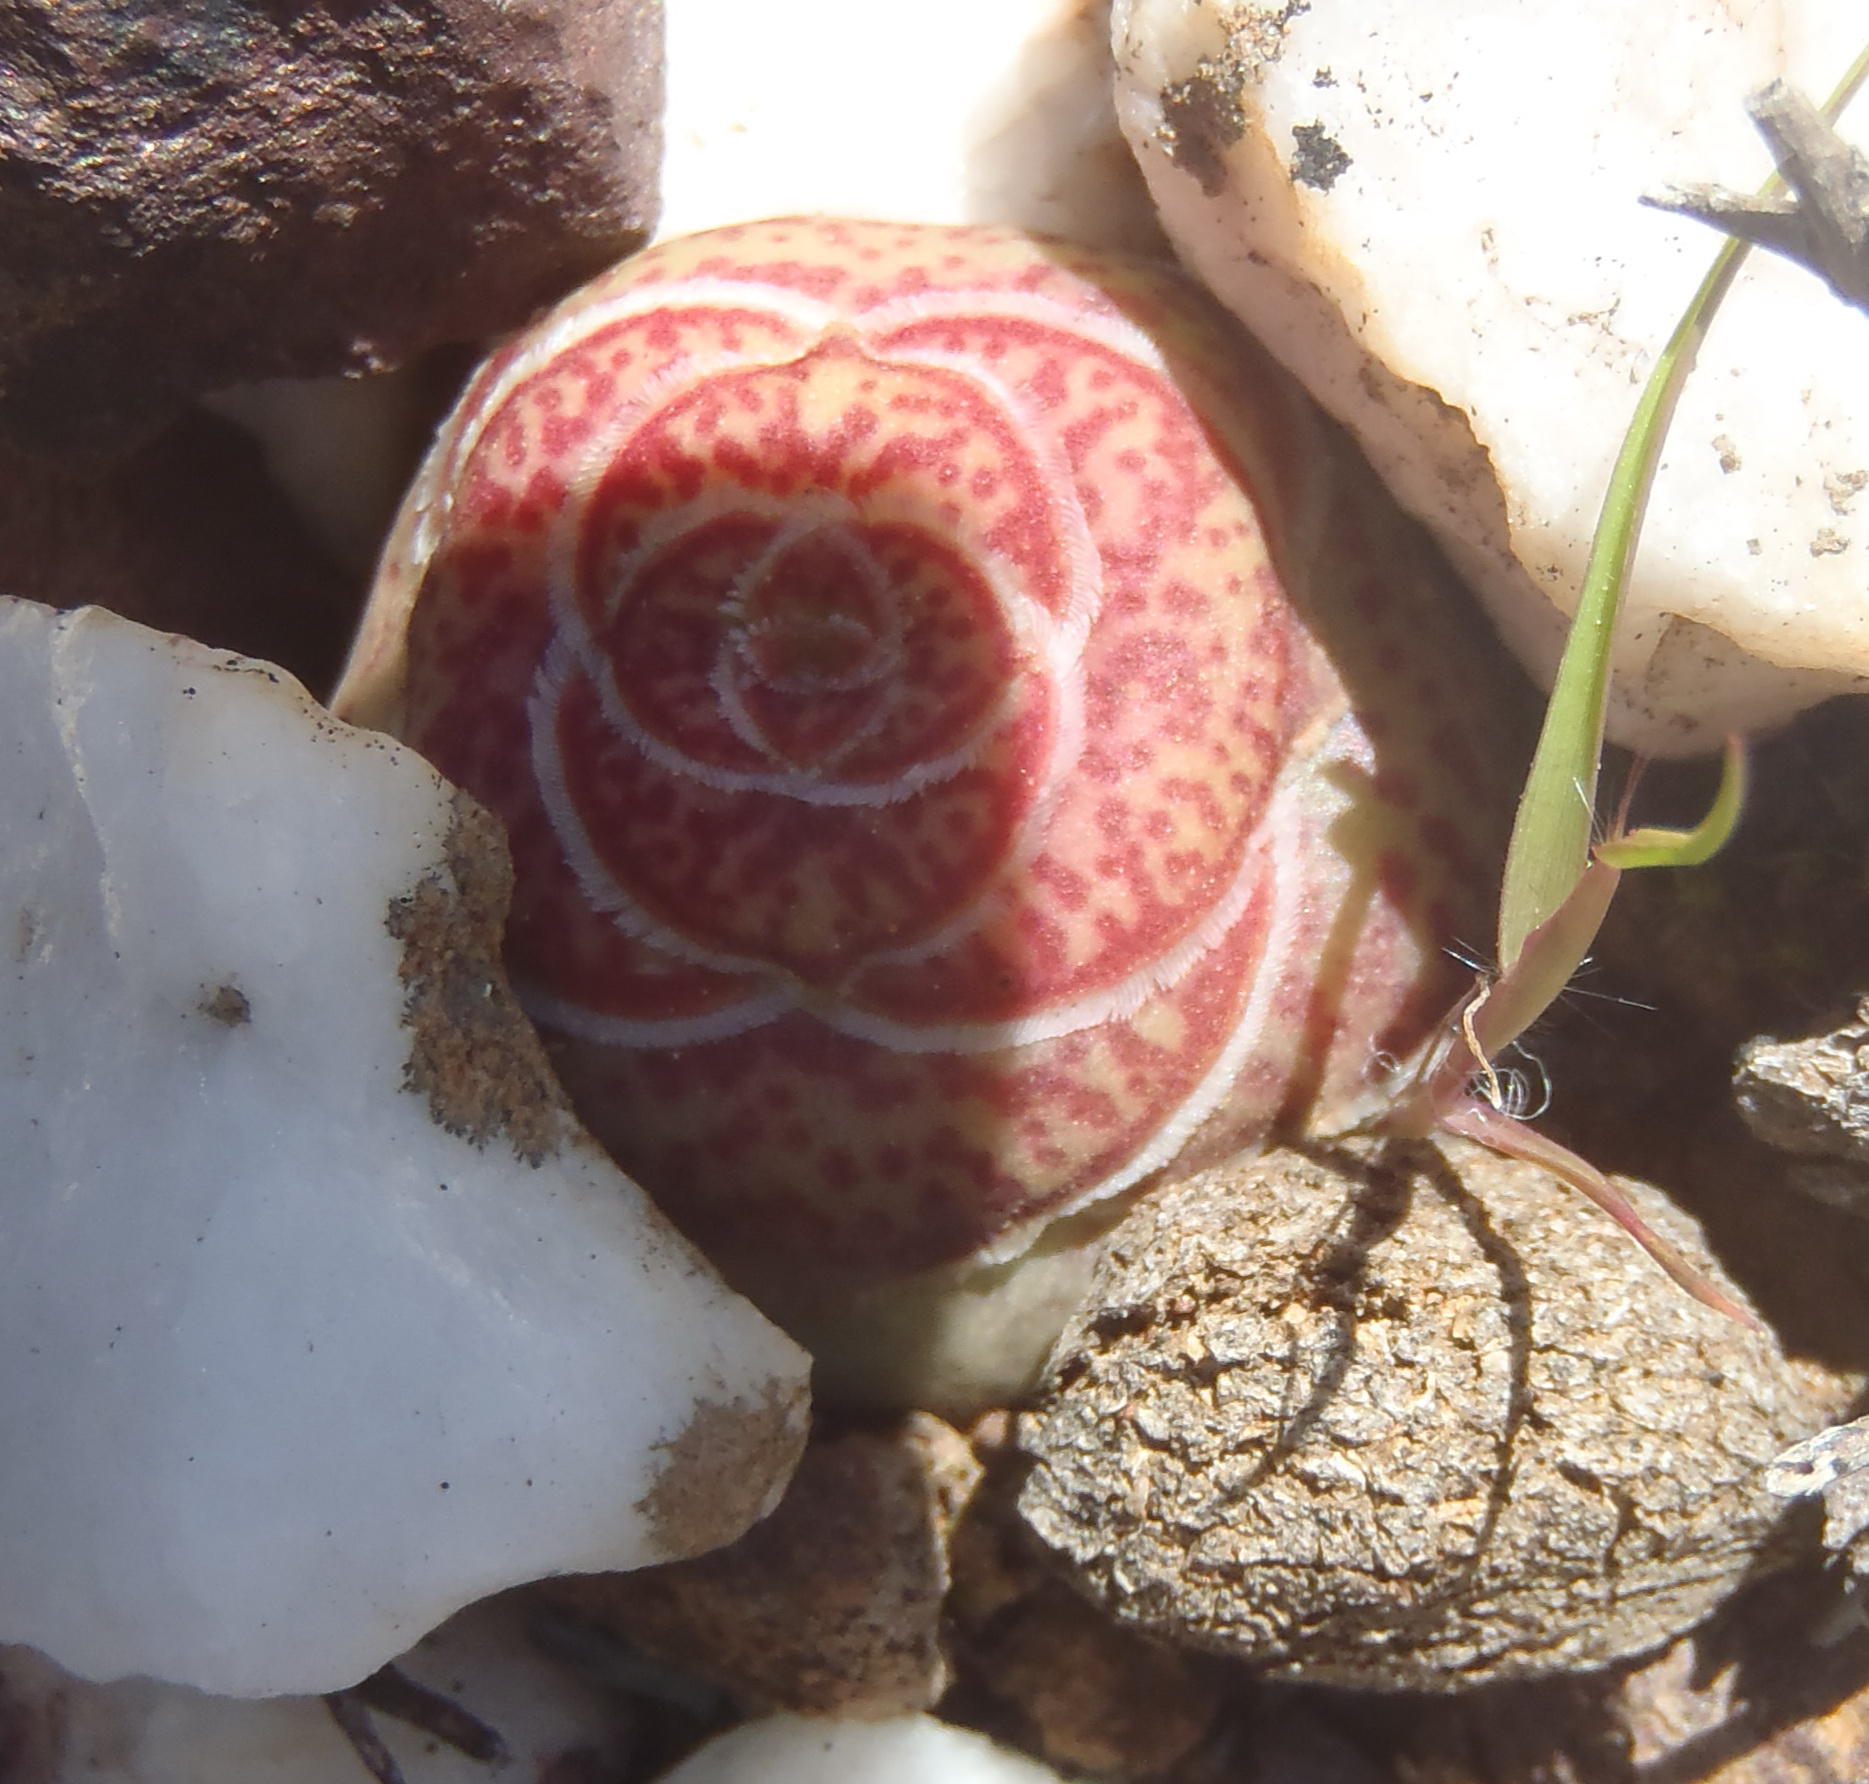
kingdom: Plantae
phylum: Tracheophyta
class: Magnoliopsida
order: Saxifragales
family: Crassulaceae
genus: Crassula
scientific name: Crassula hemisphaerica
